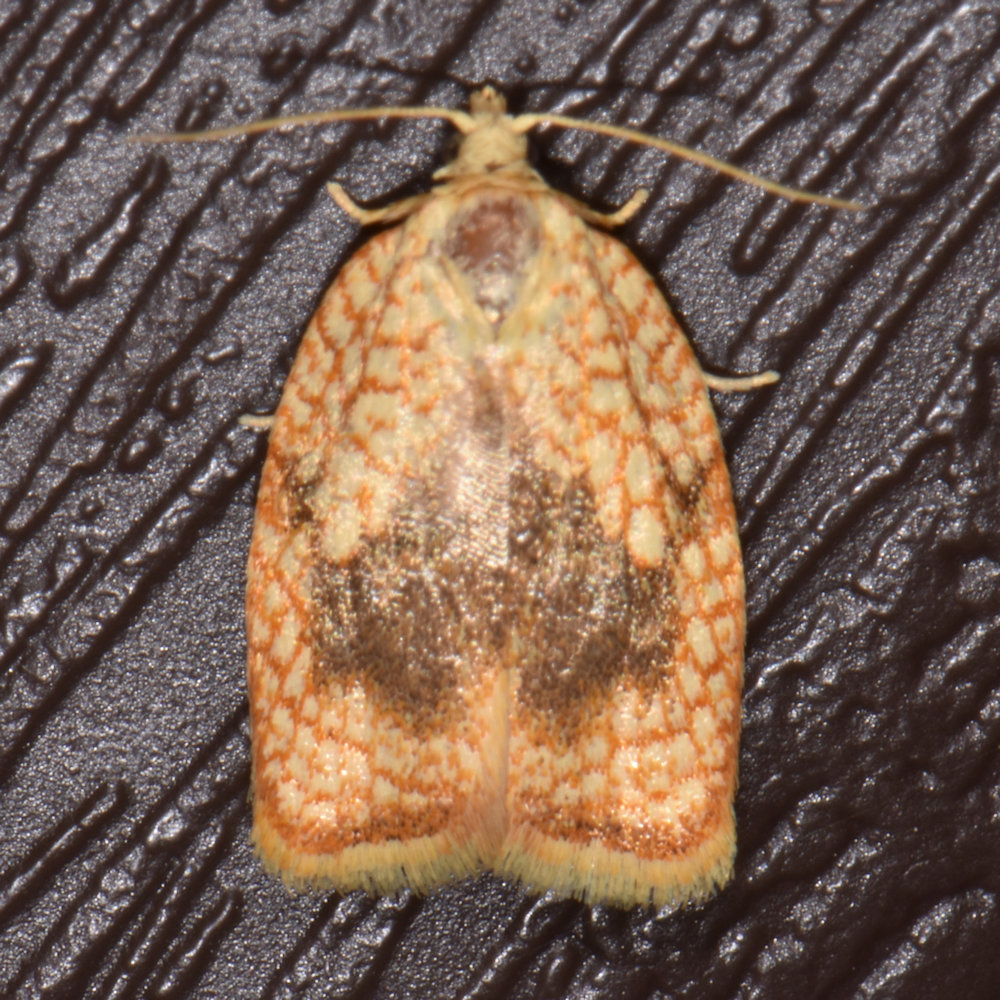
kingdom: Animalia
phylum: Arthropoda
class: Insecta
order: Lepidoptera
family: Tortricidae
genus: Acleris
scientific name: Acleris forsskaleana
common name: Maple button
